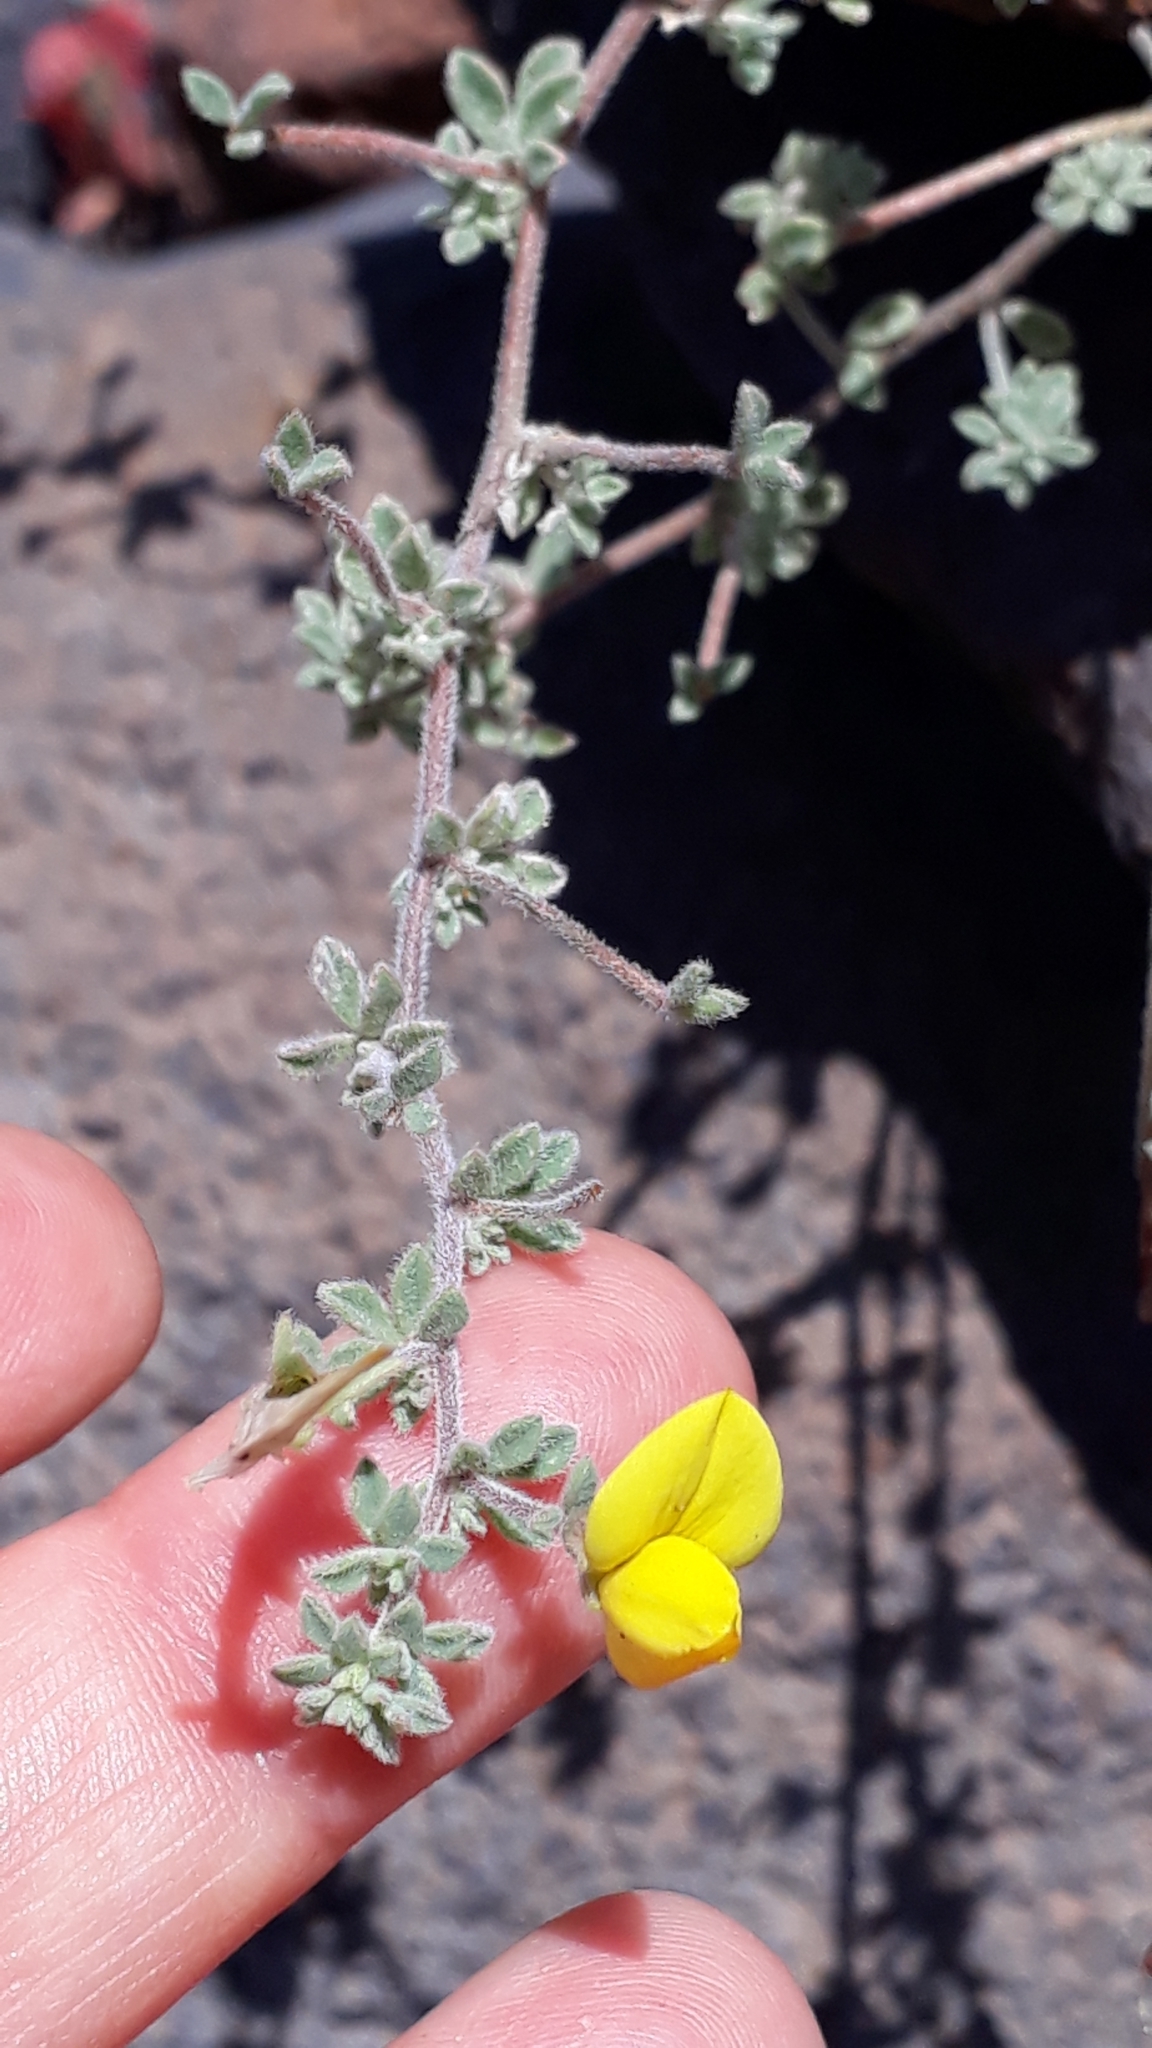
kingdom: Plantae
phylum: Tracheophyta
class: Magnoliopsida
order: Fabales
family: Fabaceae
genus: Lotus
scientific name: Lotus tenellus
